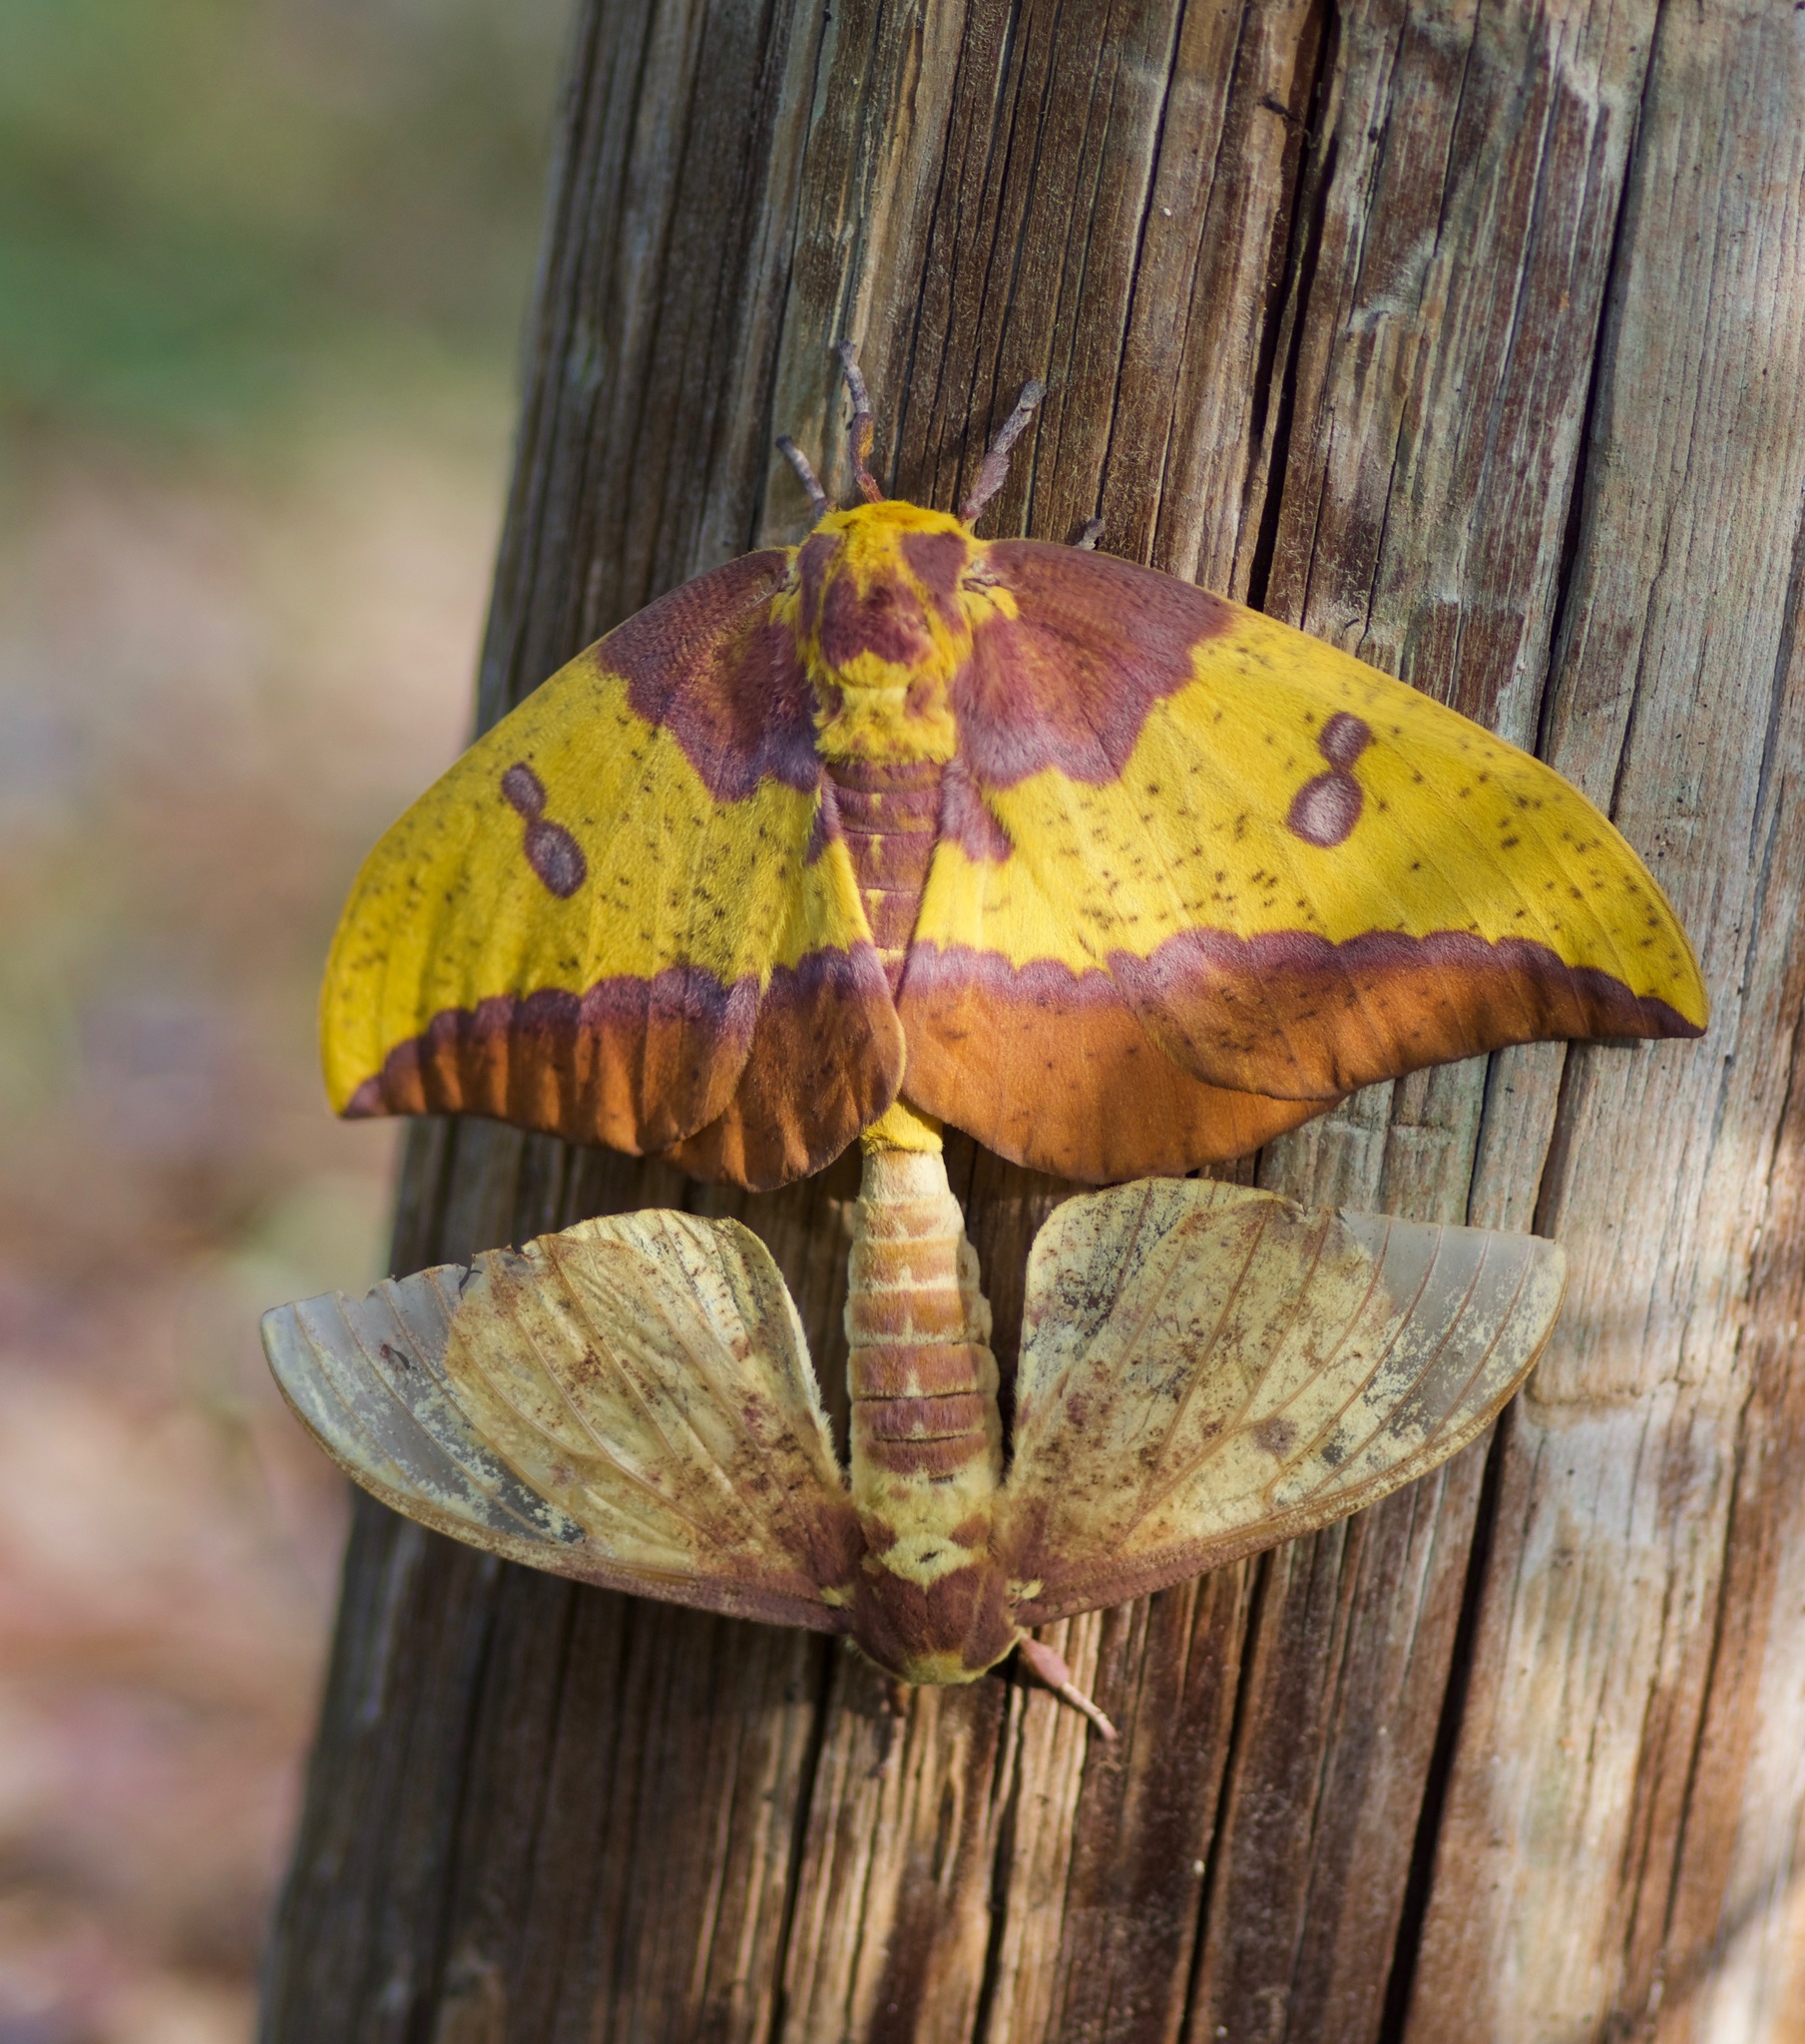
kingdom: Animalia
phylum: Arthropoda
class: Insecta
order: Lepidoptera
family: Saturniidae
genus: Eacles
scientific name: Eacles imperialis
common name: Imperial moth
